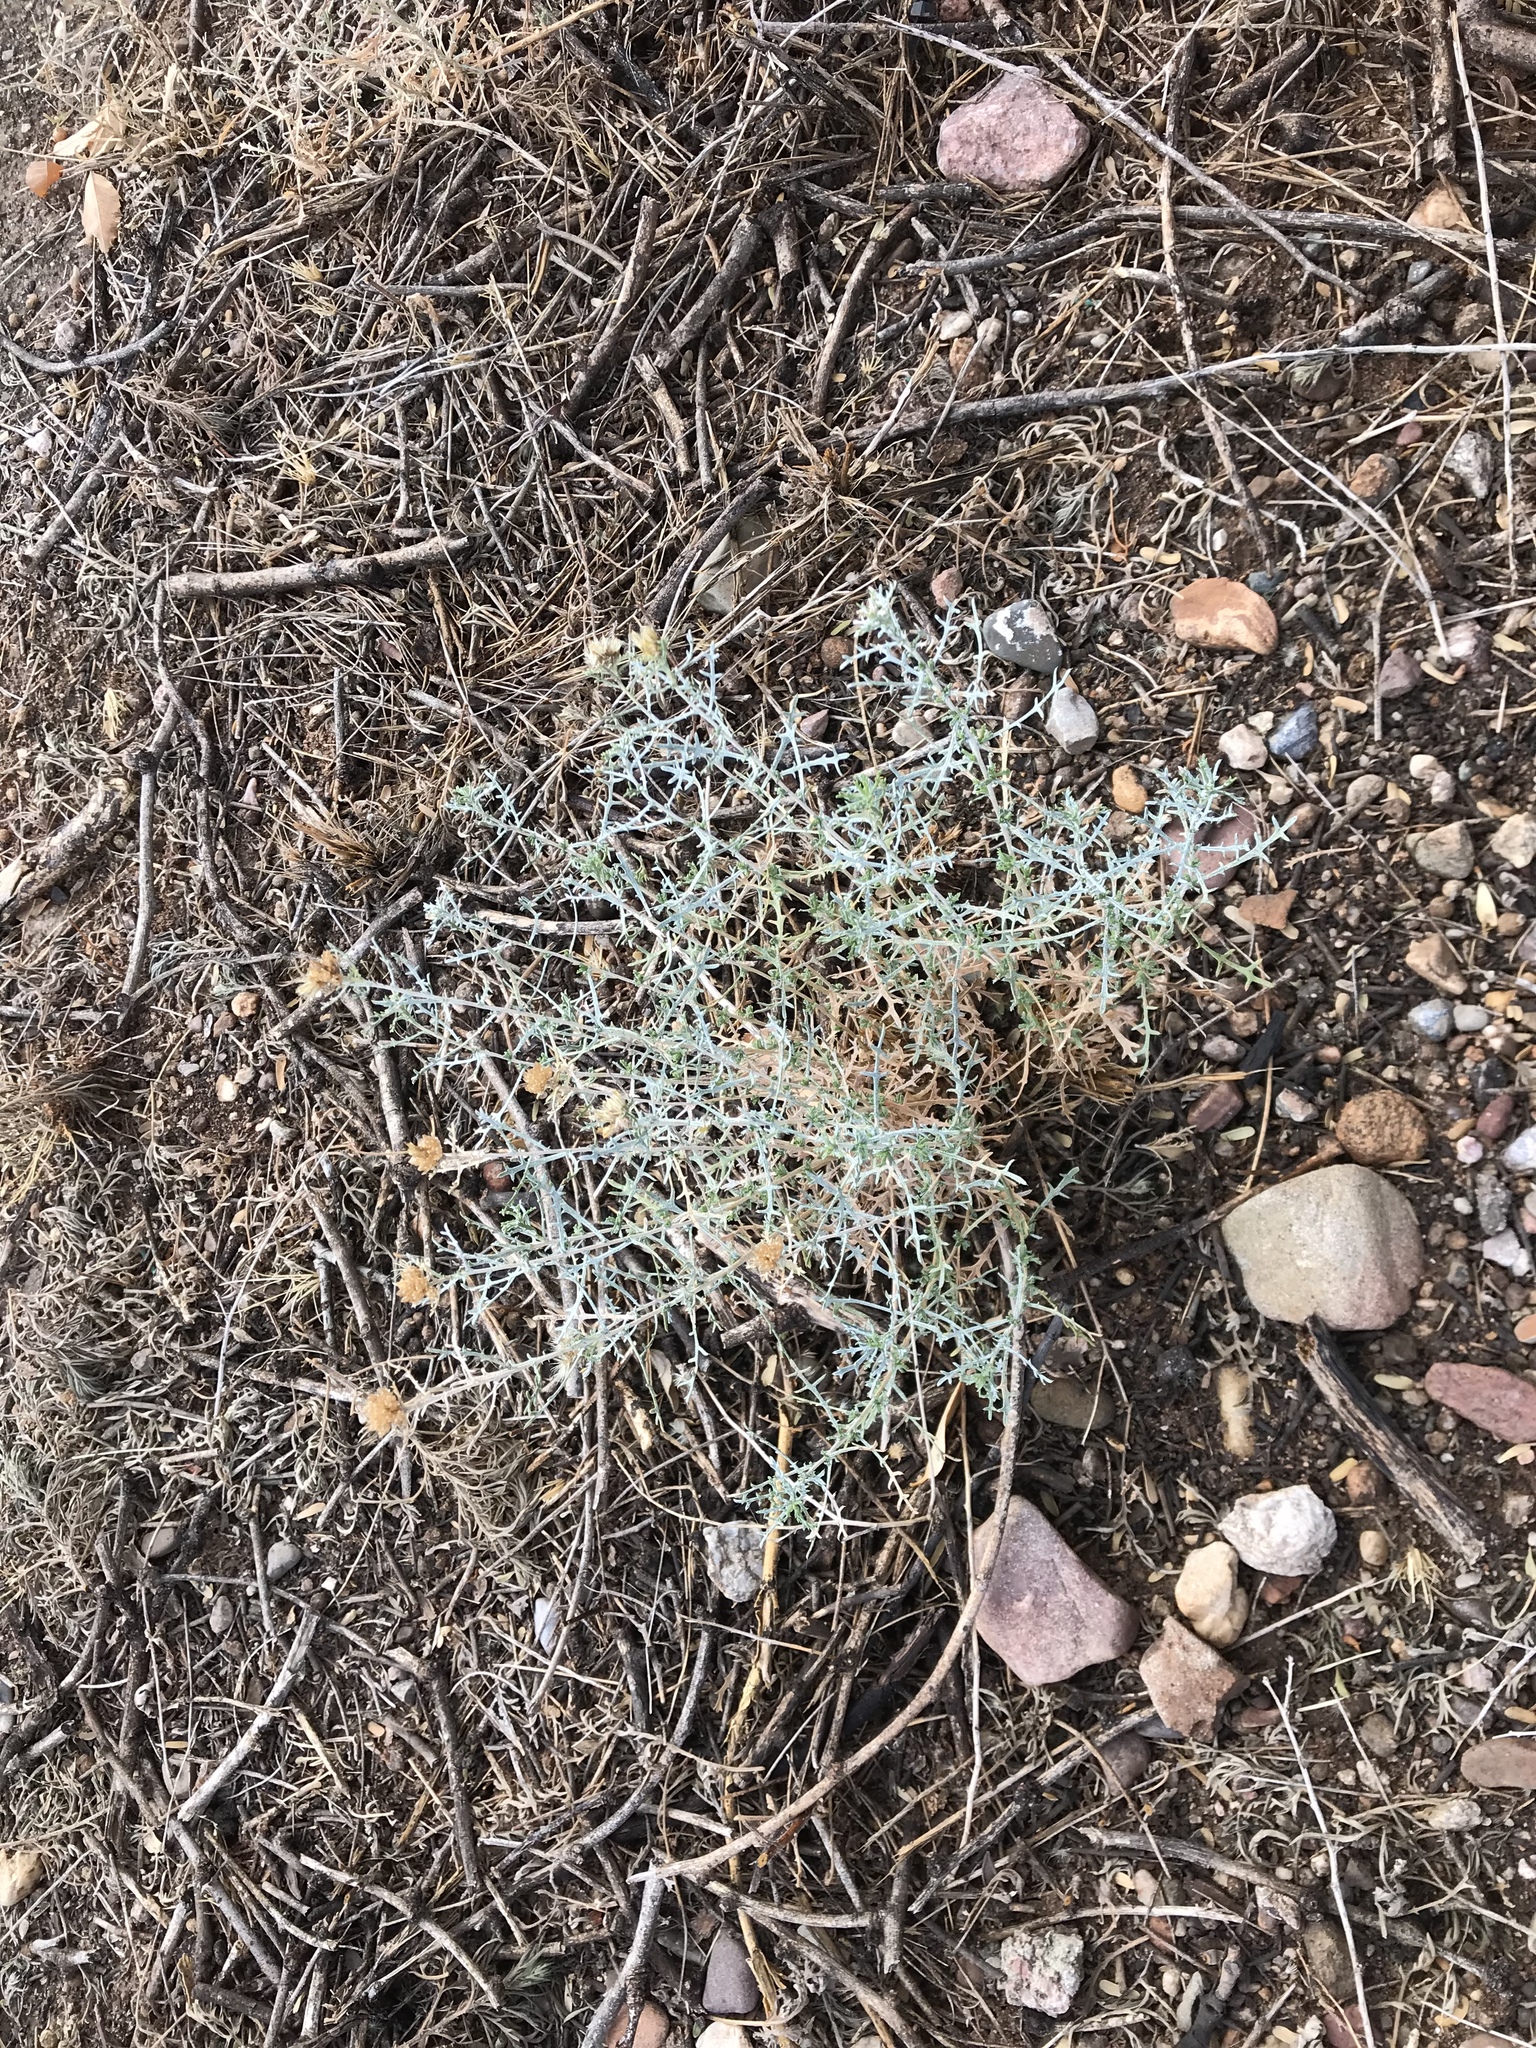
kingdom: Plantae
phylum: Tracheophyta
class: Magnoliopsida
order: Asterales
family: Asteraceae
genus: Isocoma
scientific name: Isocoma tenuisecta
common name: Burroweed
